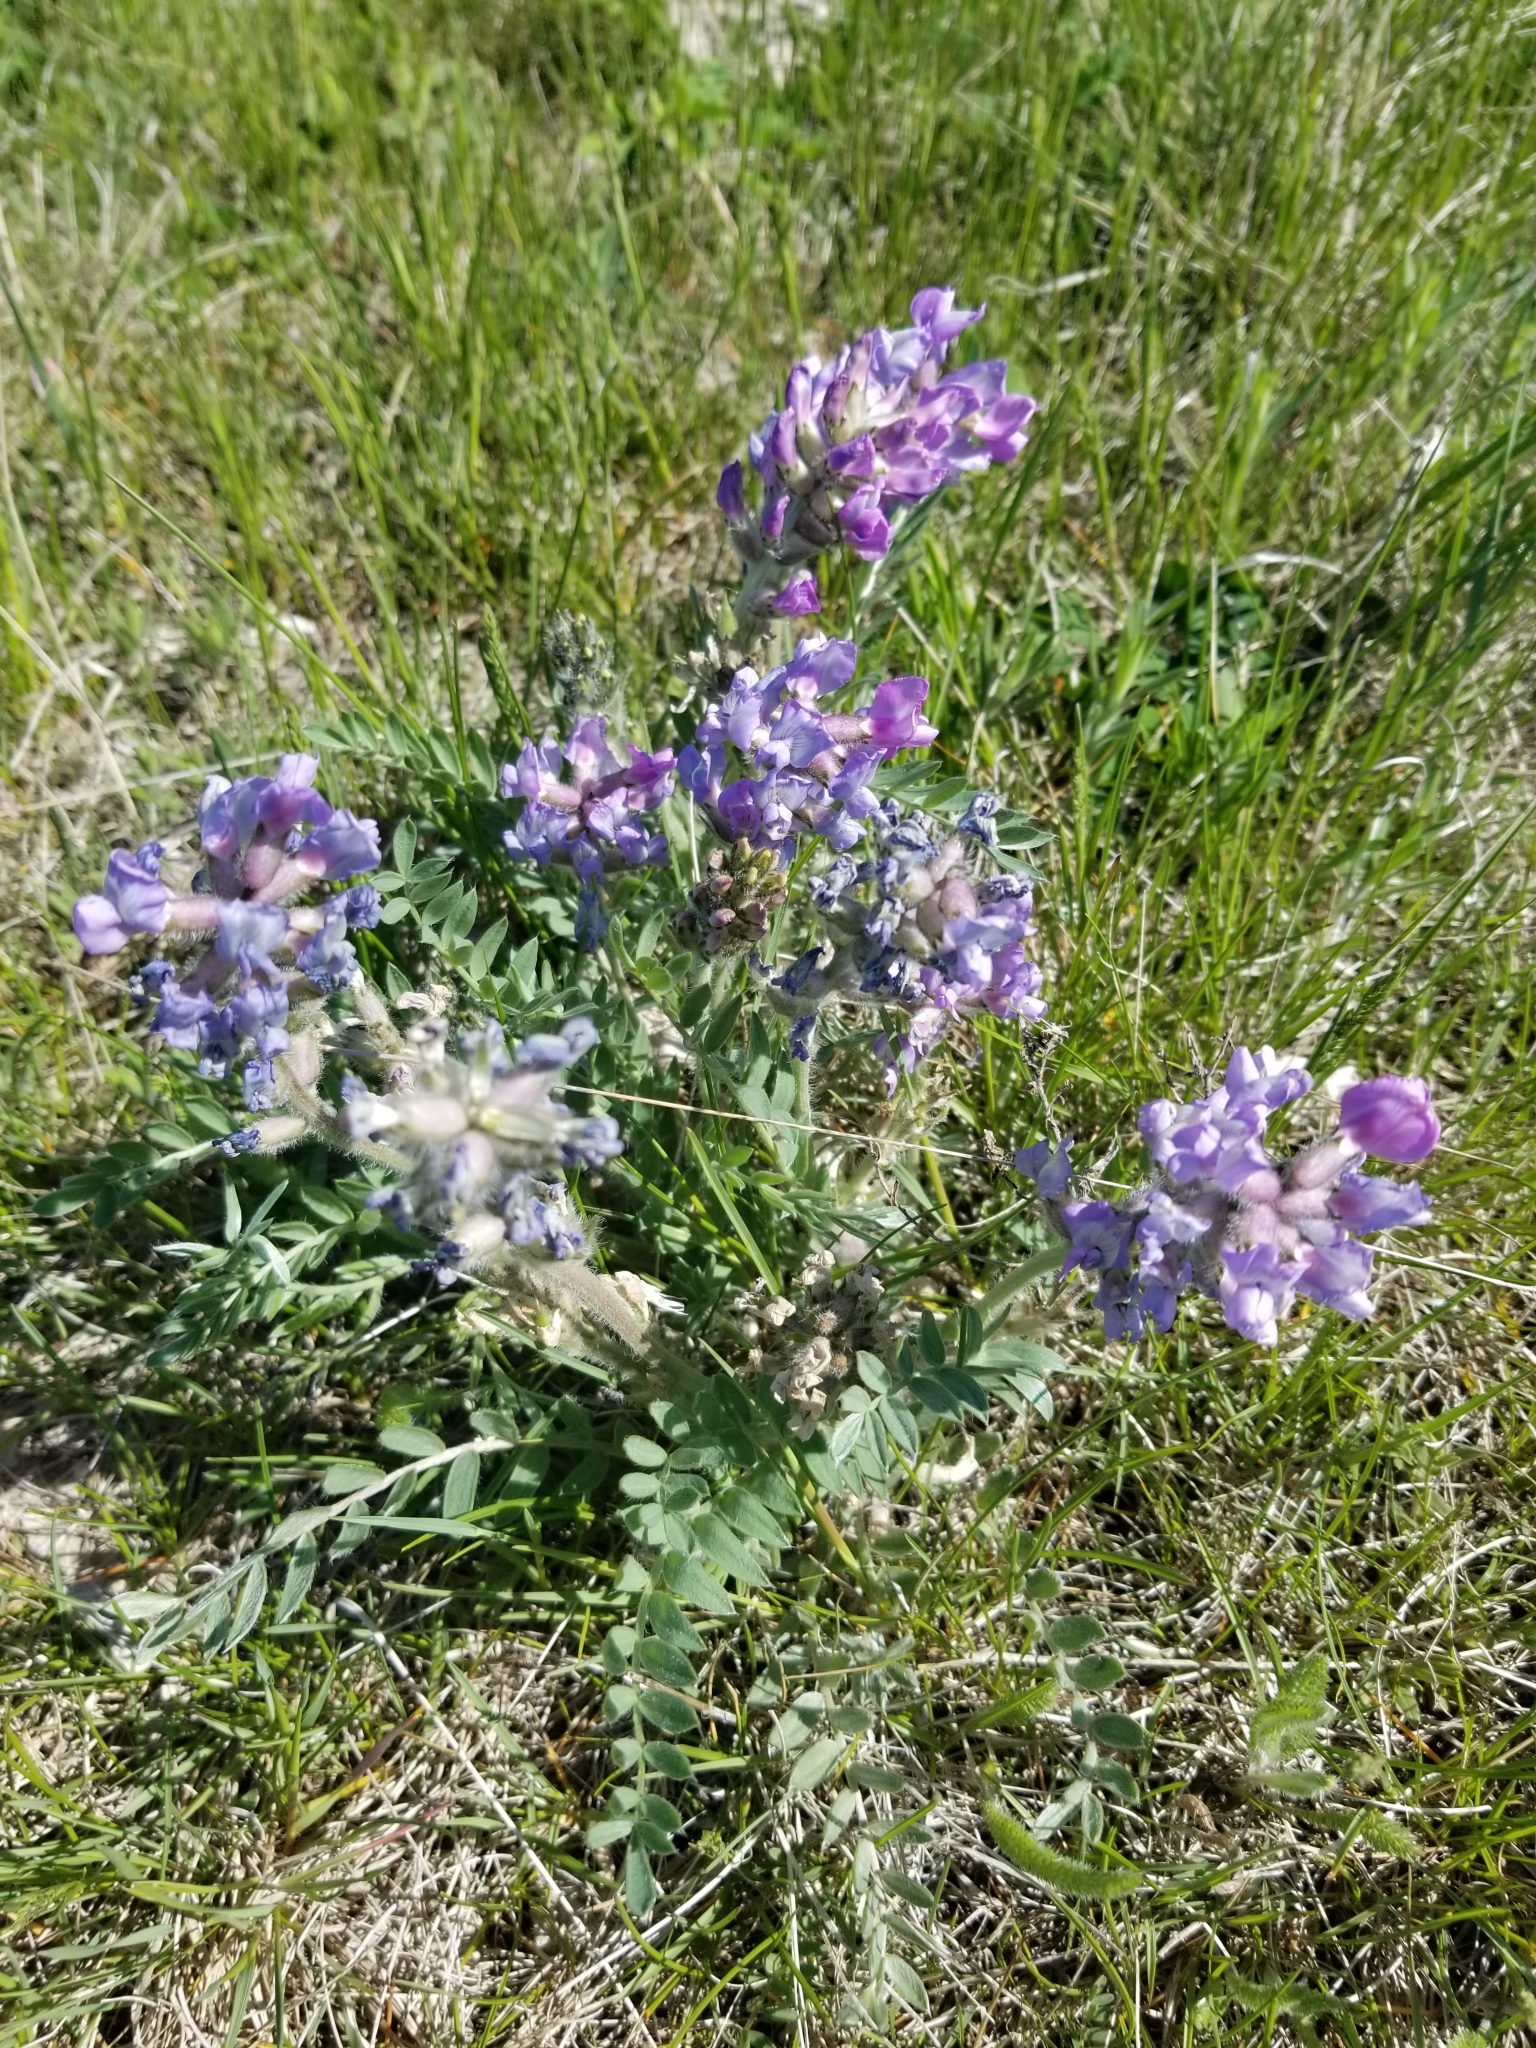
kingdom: Plantae
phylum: Tracheophyta
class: Magnoliopsida
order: Fabales
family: Fabaceae
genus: Oxytropis
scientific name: Oxytropis lambertii
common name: Purple locoweed
